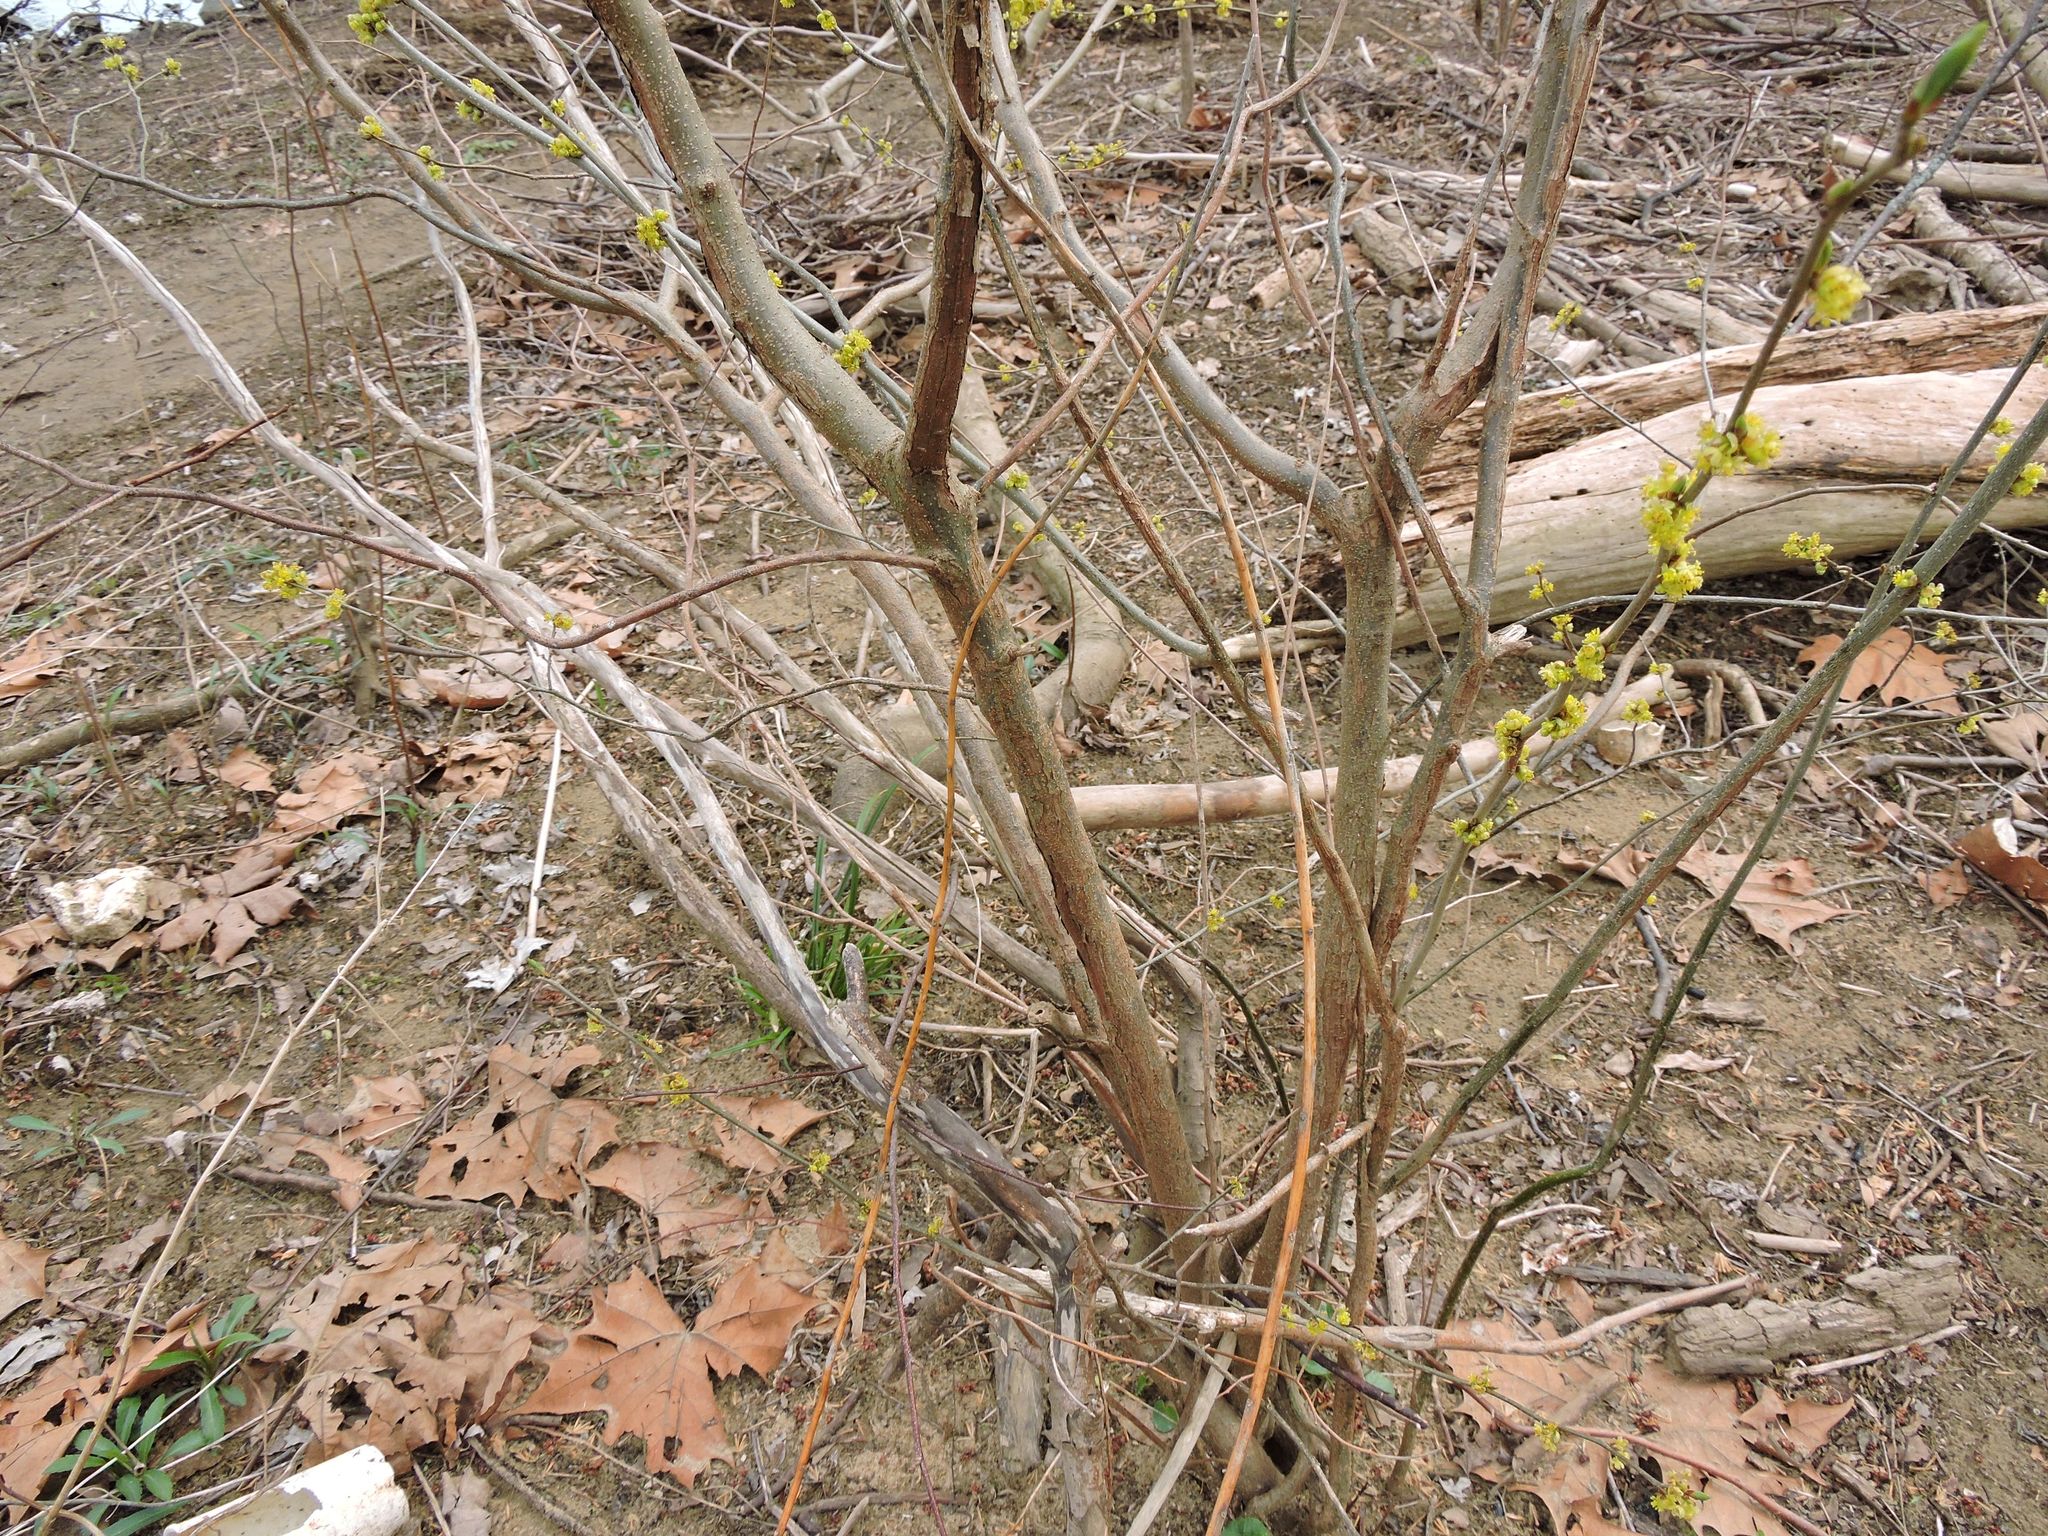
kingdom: Plantae
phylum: Tracheophyta
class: Magnoliopsida
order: Laurales
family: Lauraceae
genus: Lindera
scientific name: Lindera benzoin
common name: Spicebush
